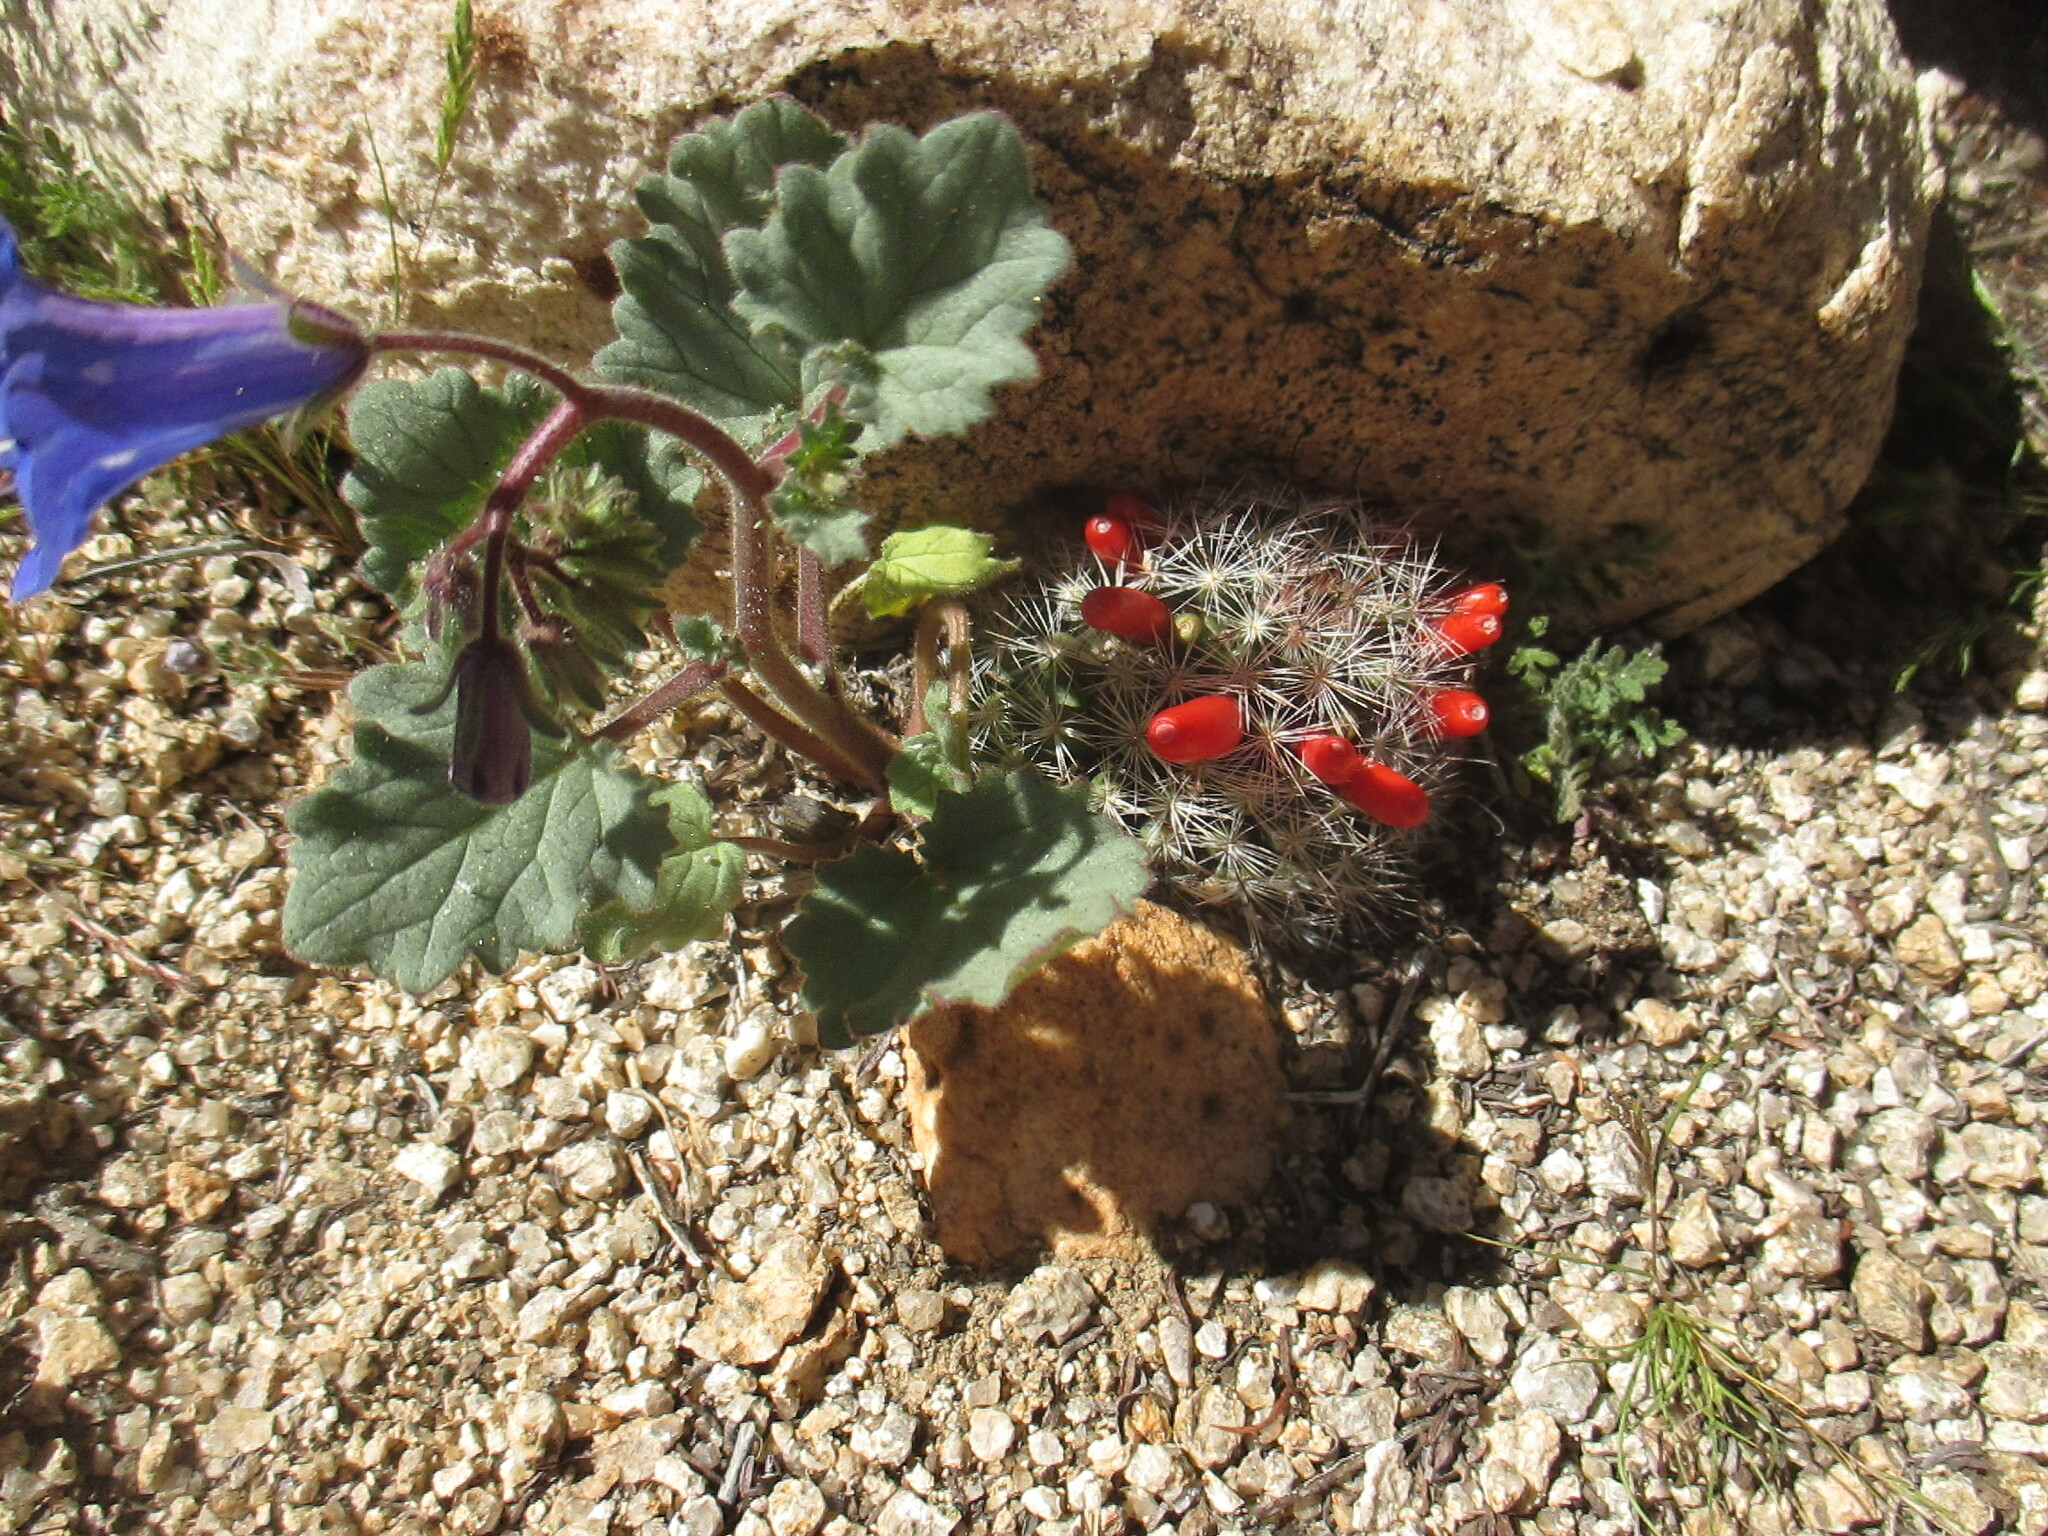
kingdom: Plantae
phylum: Tracheophyta
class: Magnoliopsida
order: Caryophyllales
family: Cactaceae
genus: Cochemiea
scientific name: Cochemiea tetrancistra
